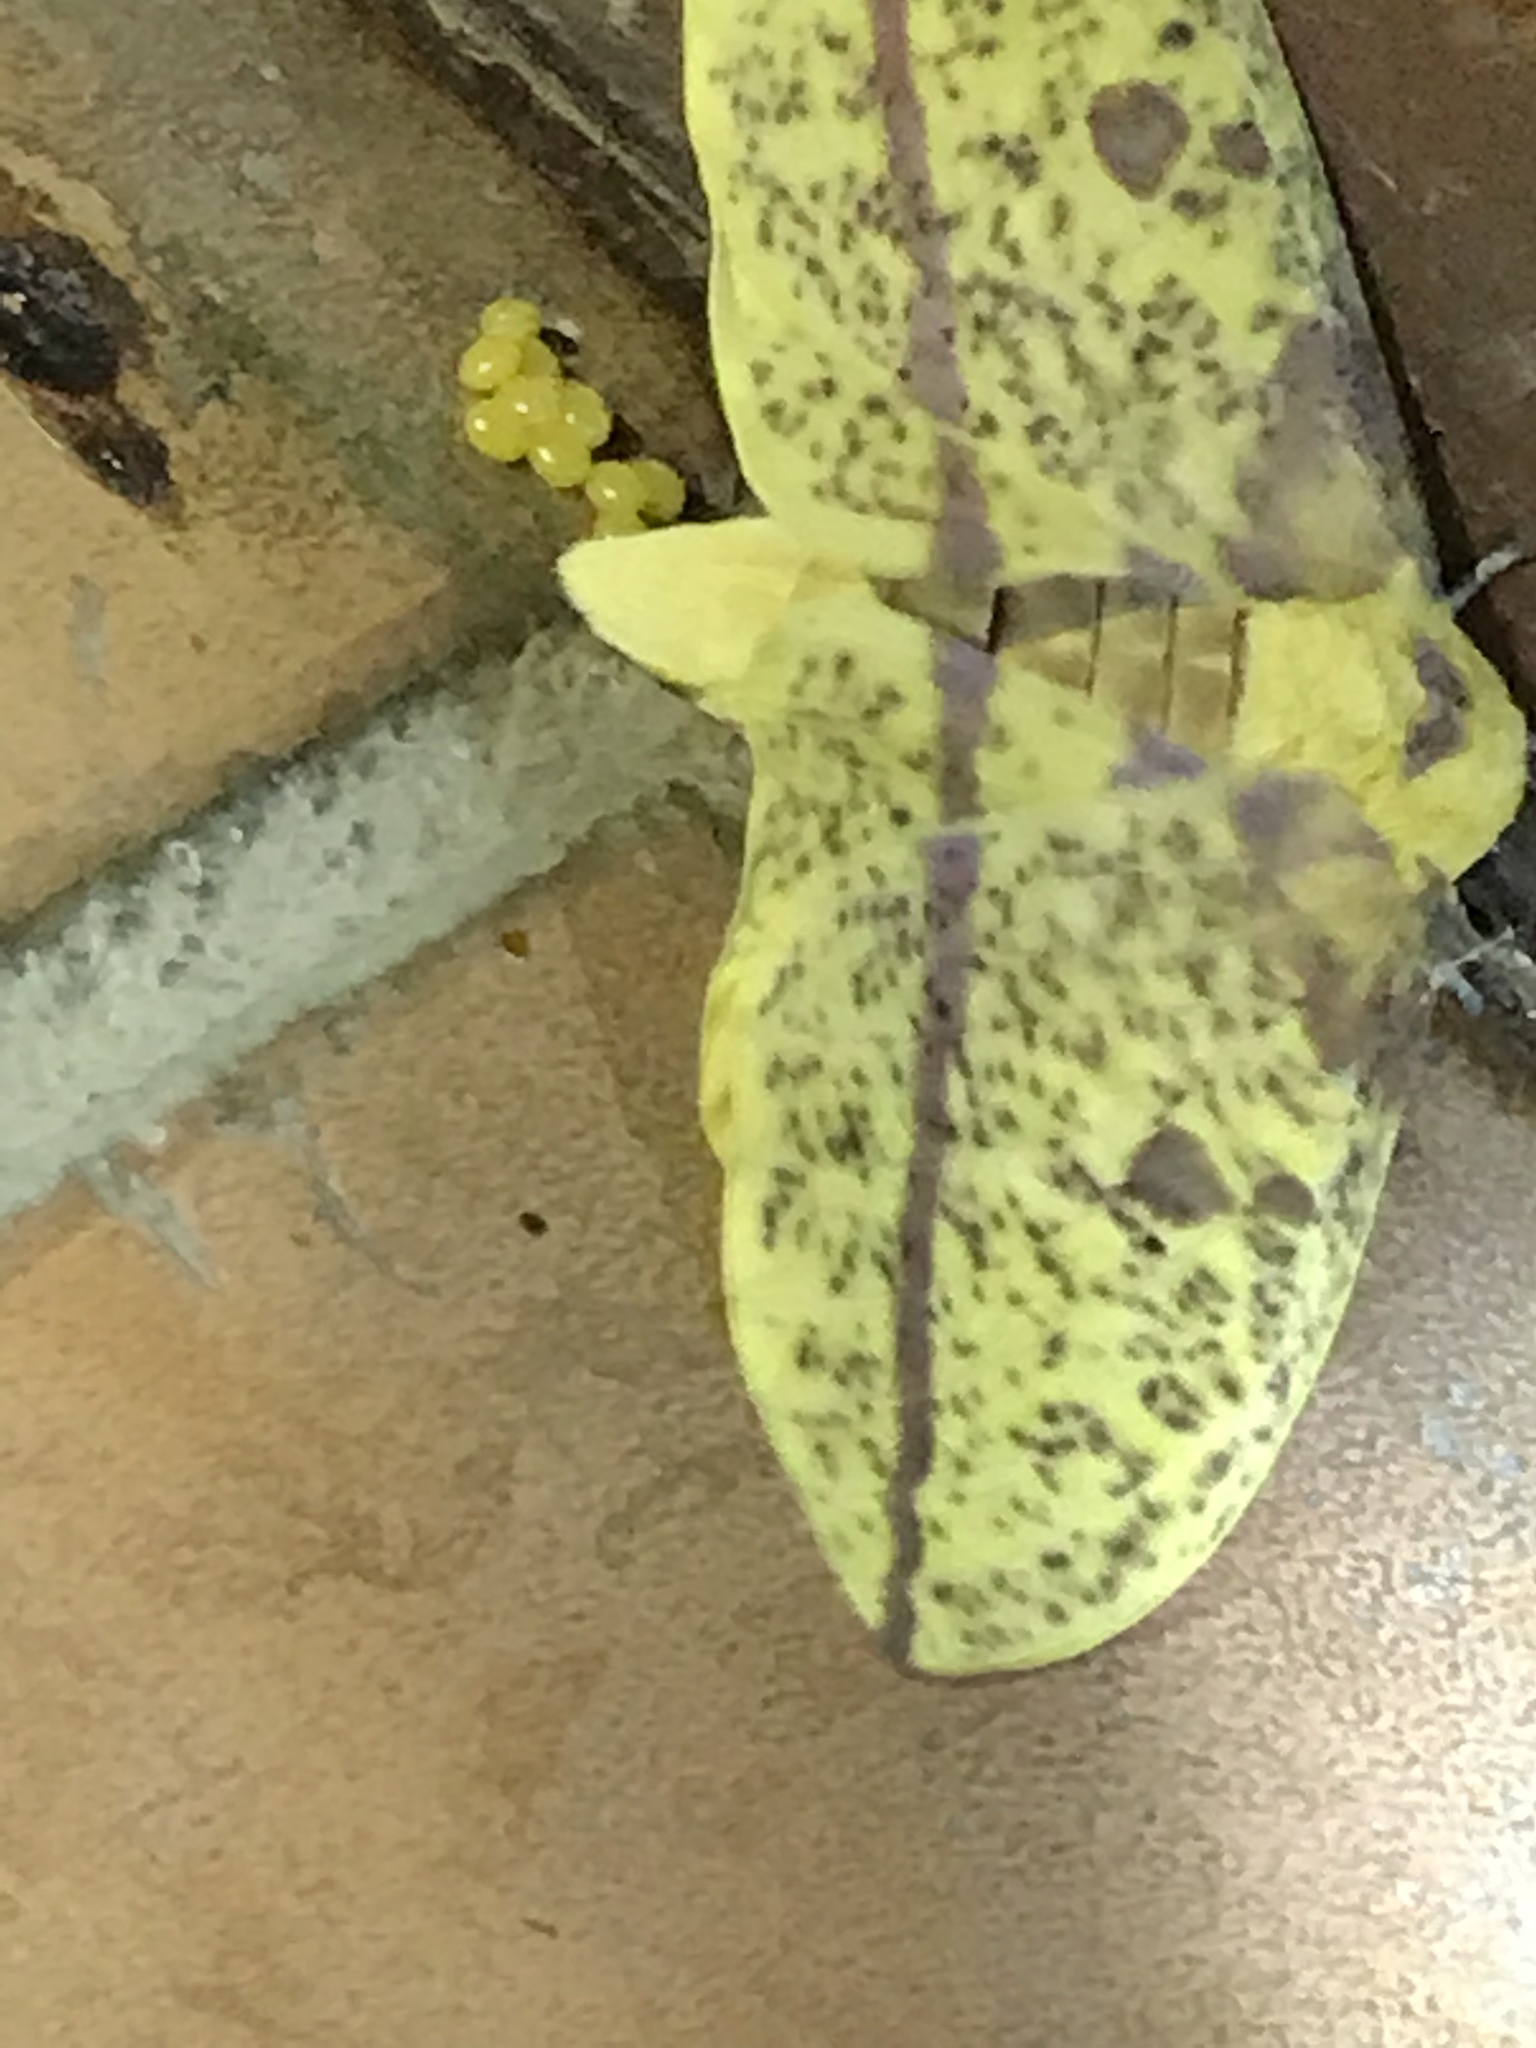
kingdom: Animalia
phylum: Arthropoda
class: Insecta
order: Lepidoptera
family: Saturniidae
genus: Eacles
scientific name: Eacles imperialis
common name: Imperial moth
